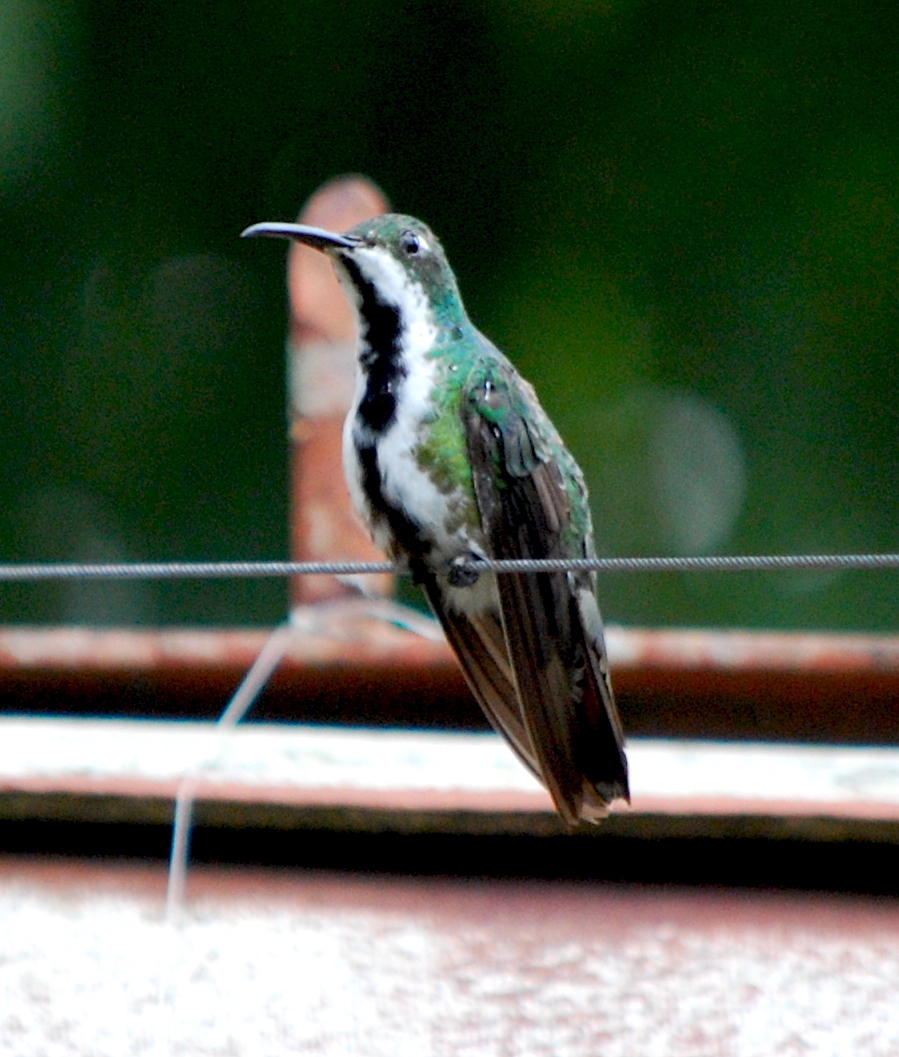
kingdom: Animalia
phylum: Chordata
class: Aves
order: Apodiformes
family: Trochilidae
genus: Anthracothorax
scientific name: Anthracothorax nigricollis
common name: Black-throated mango
